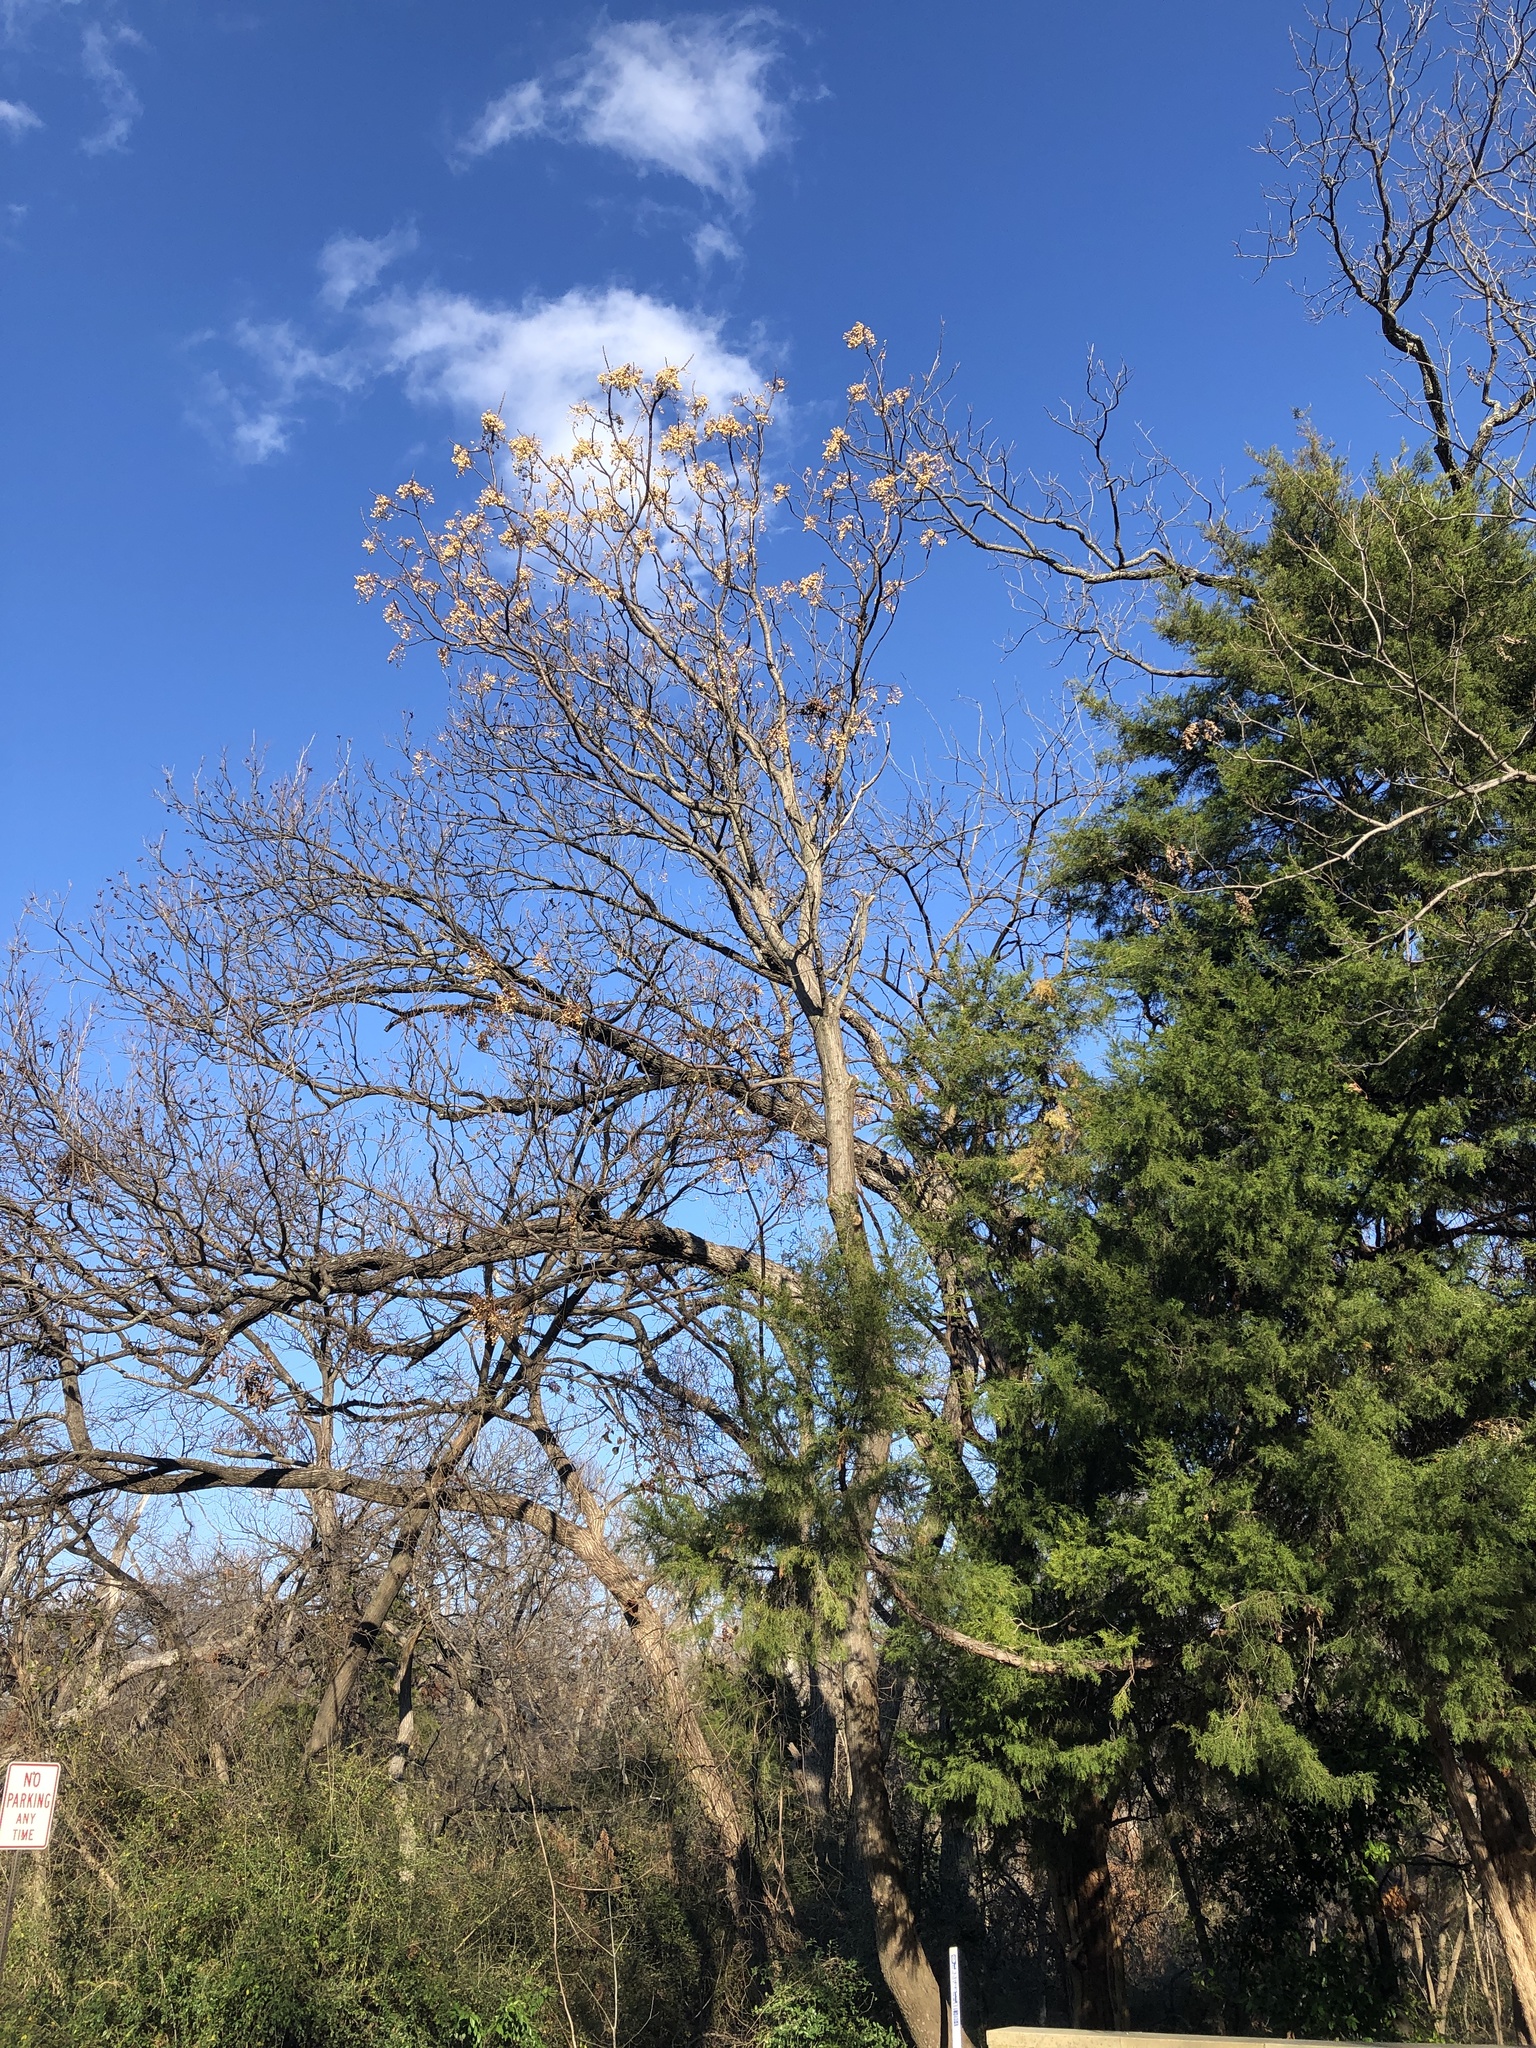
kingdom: Plantae
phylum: Tracheophyta
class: Magnoliopsida
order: Sapindales
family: Meliaceae
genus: Melia
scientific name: Melia azedarach
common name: Chinaberrytree
